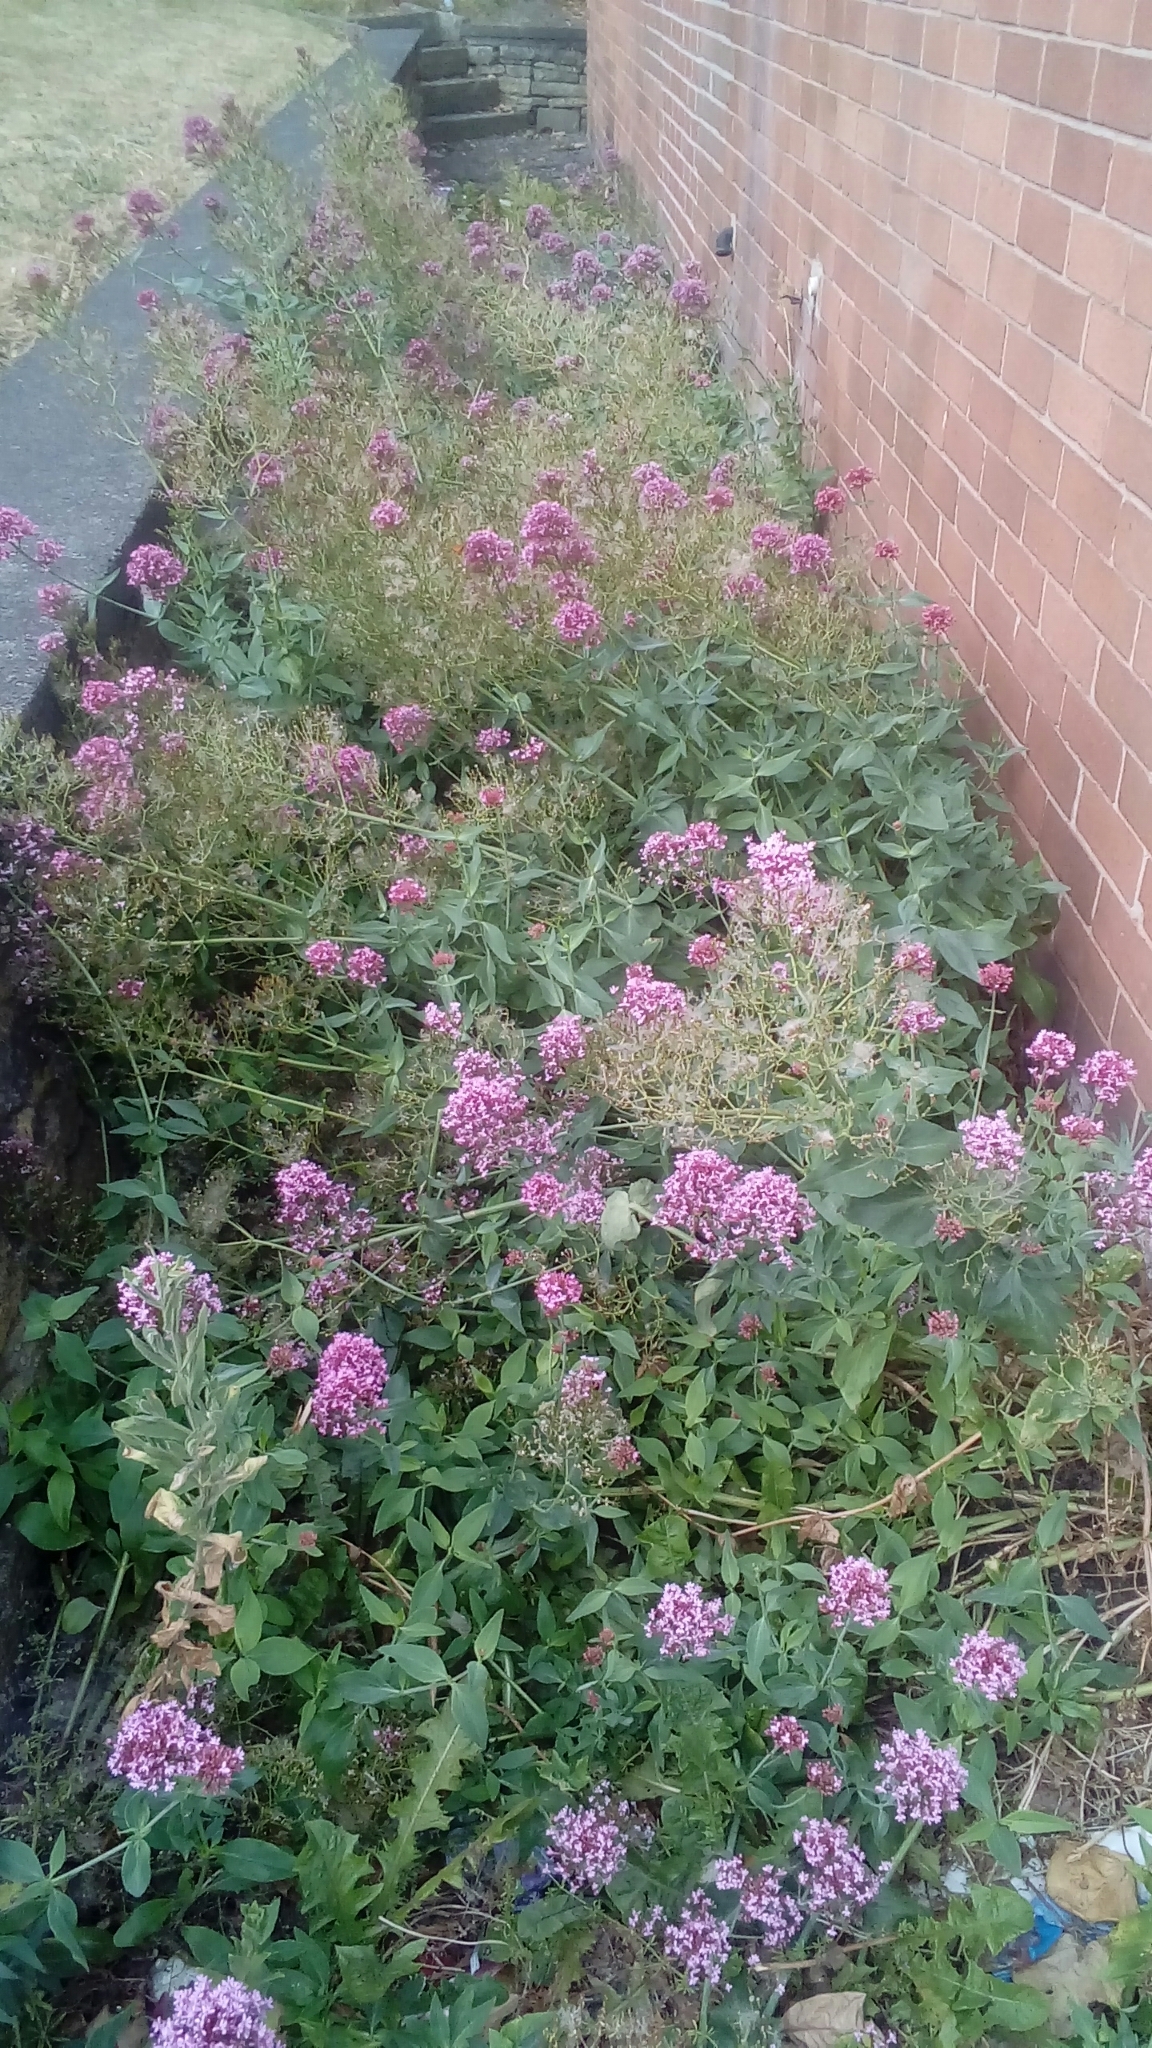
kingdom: Plantae
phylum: Tracheophyta
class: Magnoliopsida
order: Dipsacales
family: Caprifoliaceae
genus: Centranthus
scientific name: Centranthus ruber
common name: Red valerian
